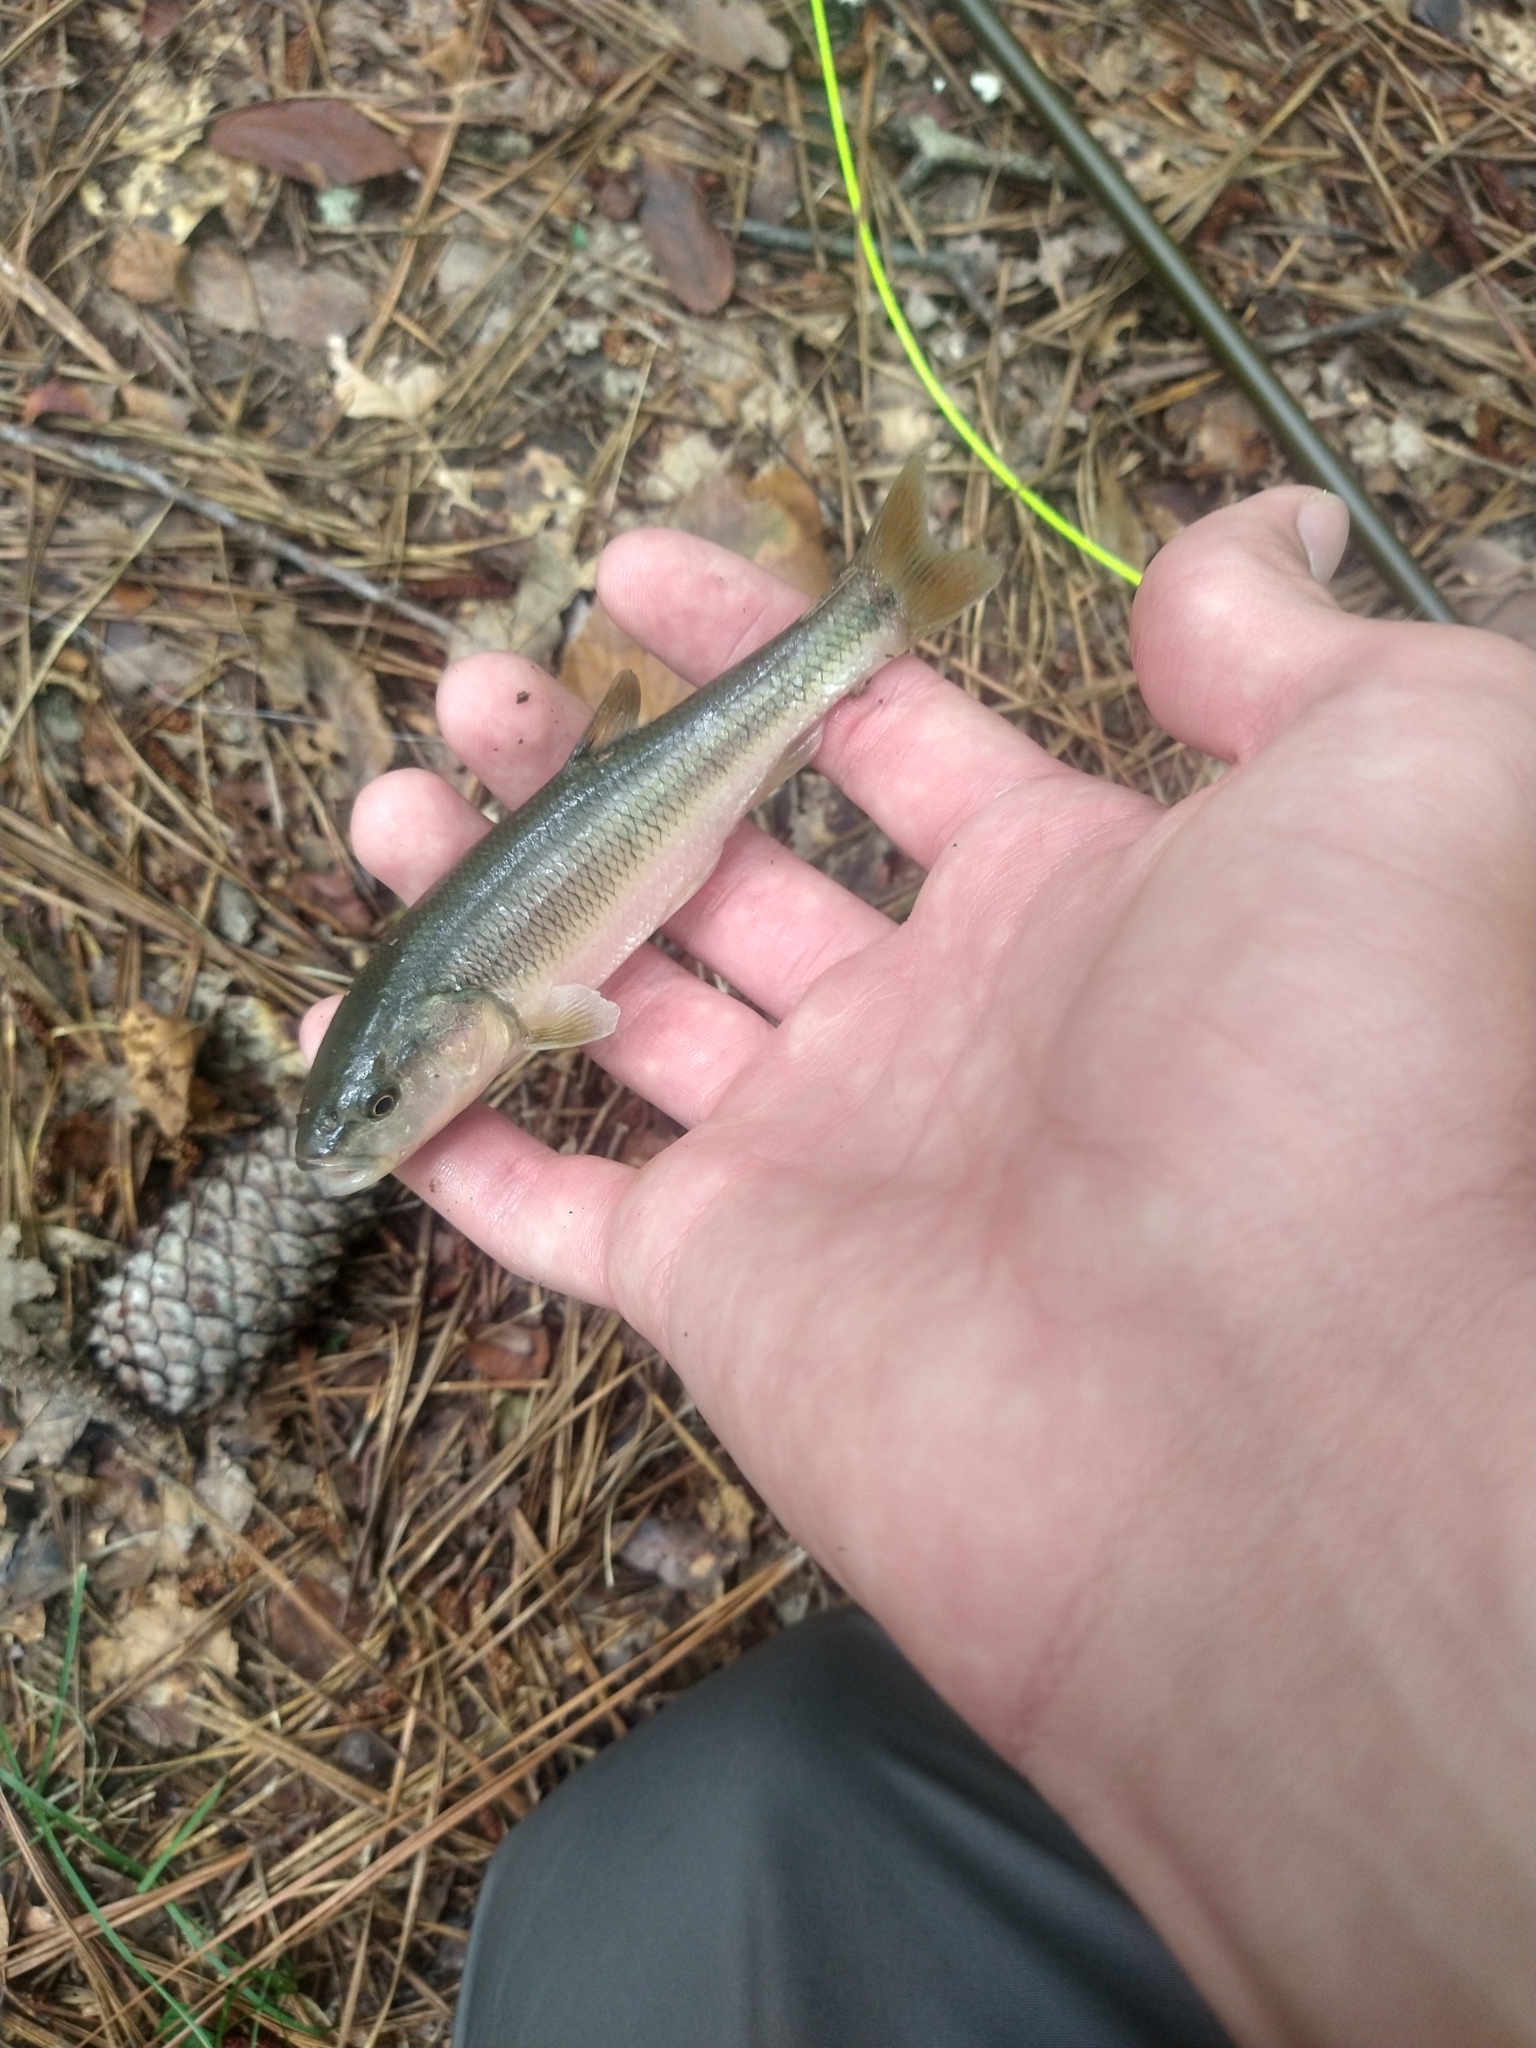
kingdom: Animalia
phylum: Chordata
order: Cypriniformes
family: Cyprinidae
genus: Semotilus
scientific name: Semotilus atromaculatus
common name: Creek chub
